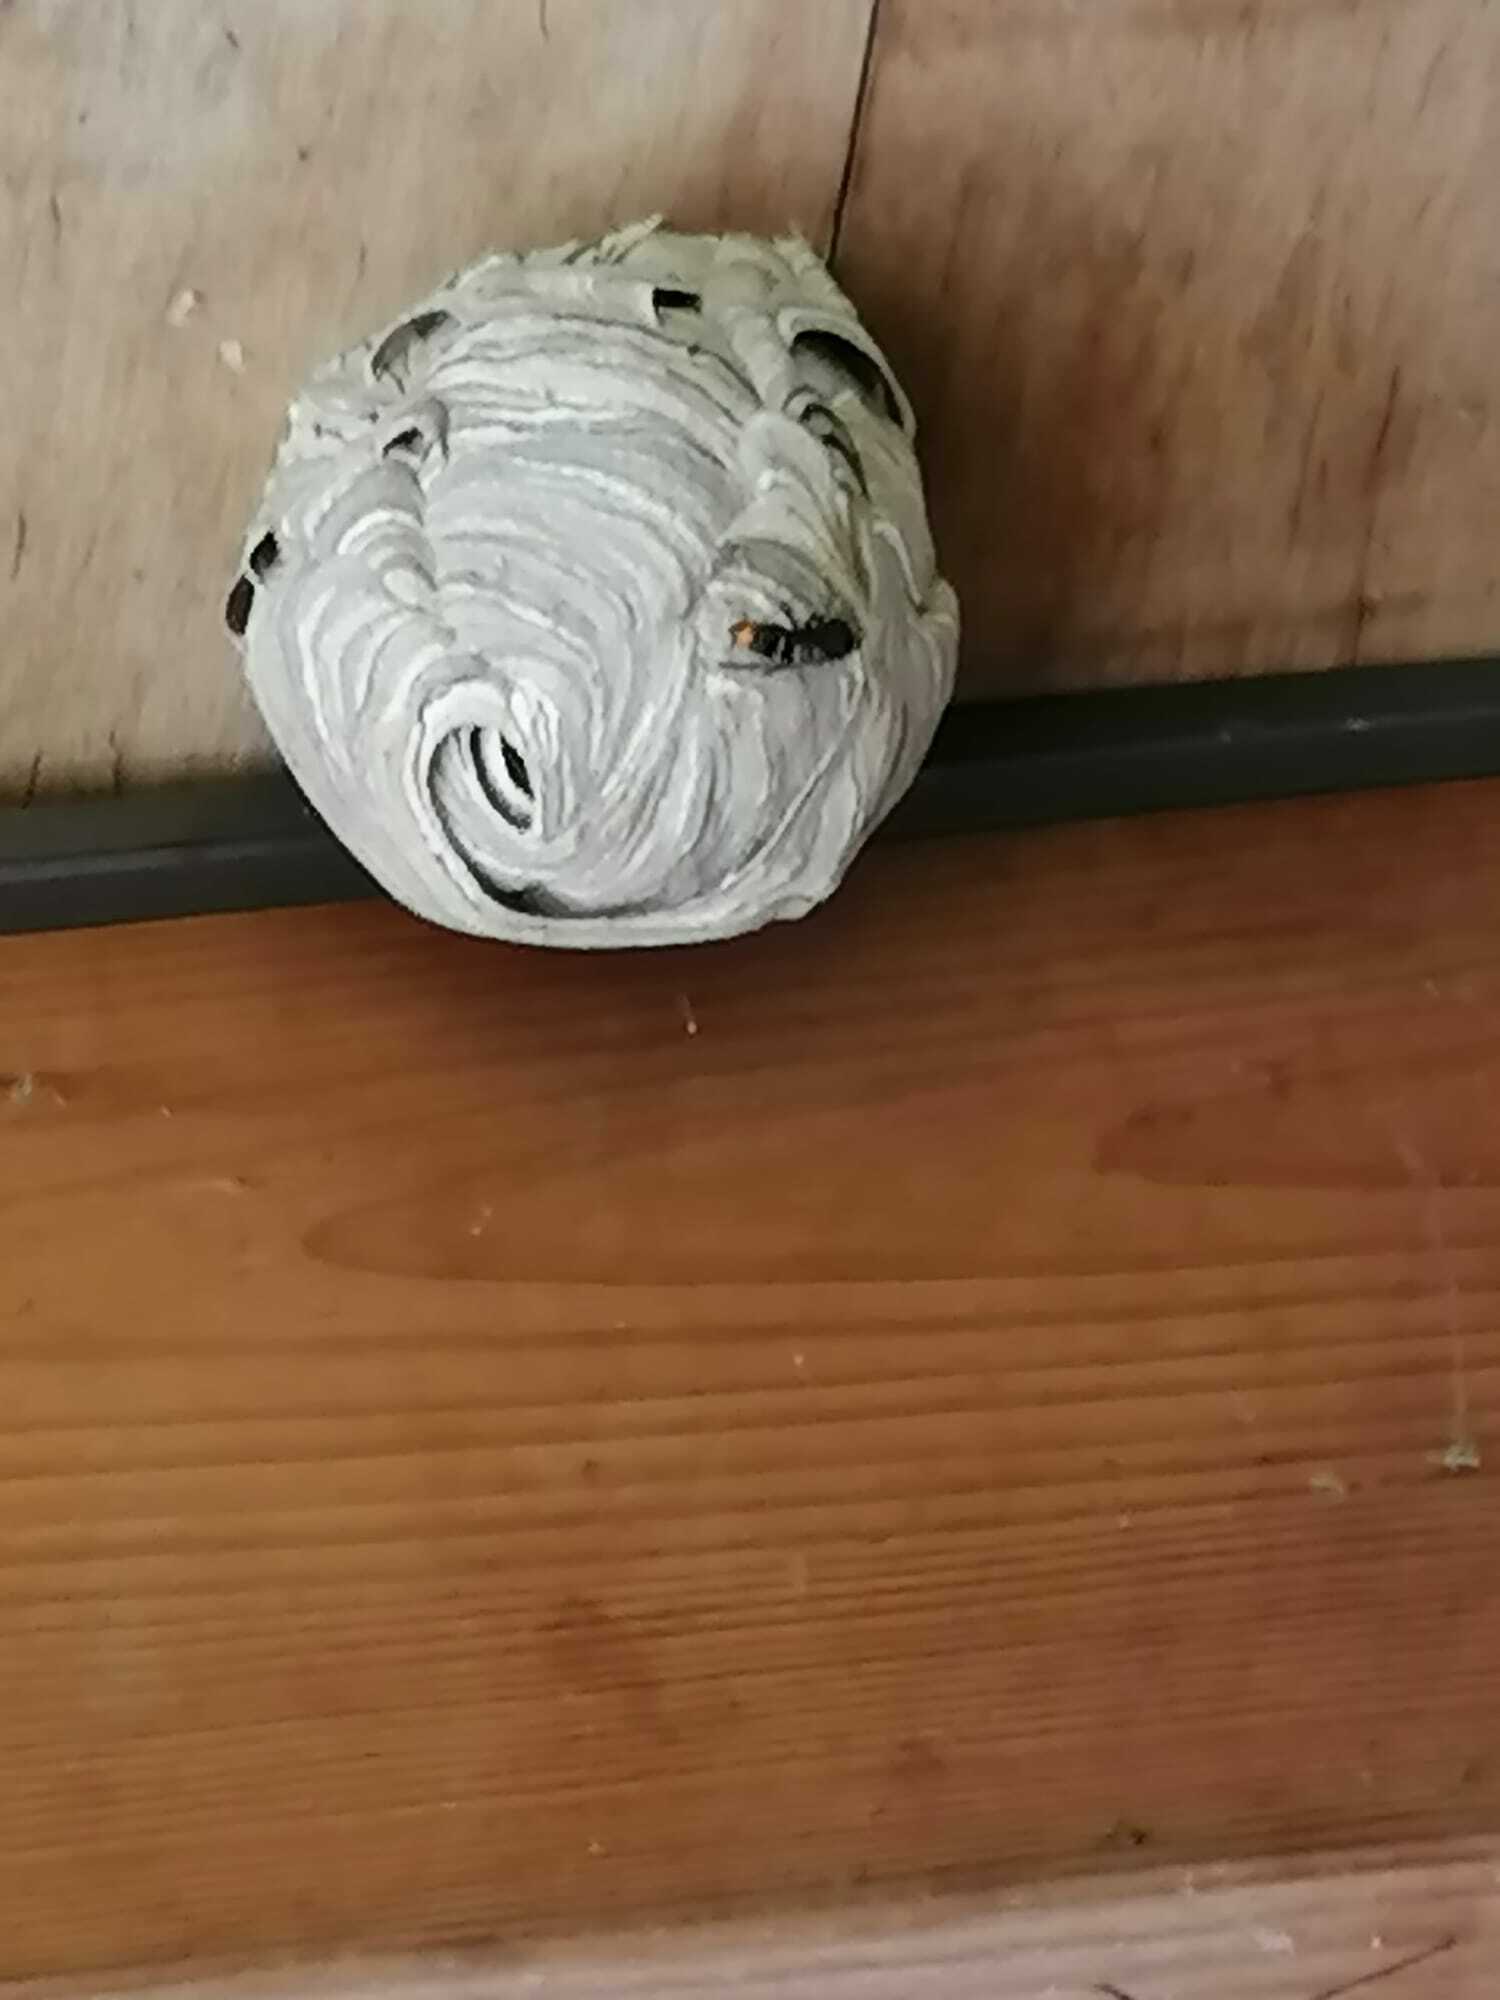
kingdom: Animalia
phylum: Arthropoda
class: Insecta
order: Hymenoptera
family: Vespidae
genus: Vespa
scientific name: Vespa velutina
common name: Asian hornet
